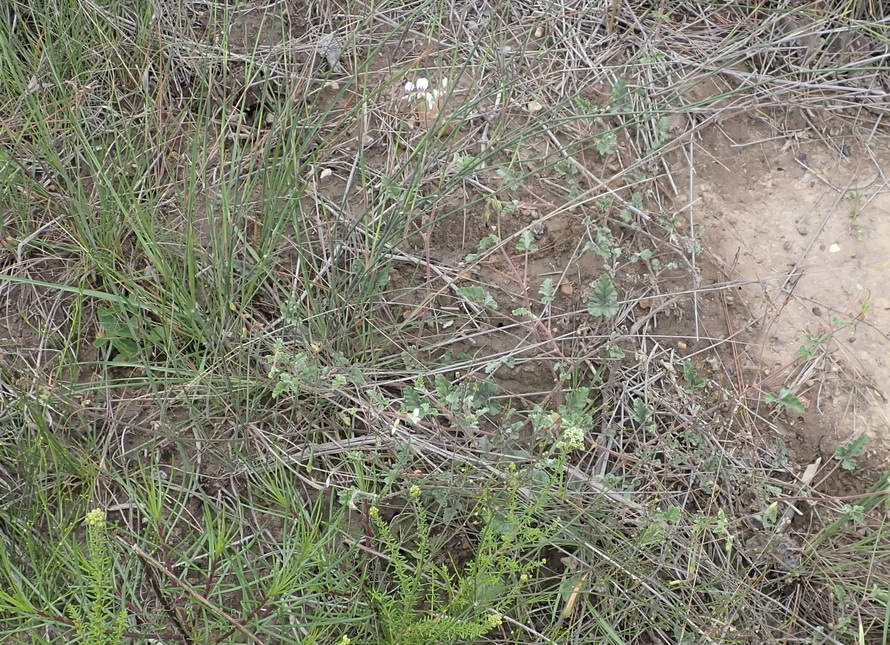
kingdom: Plantae
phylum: Tracheophyta
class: Magnoliopsida
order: Geraniales
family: Geraniaceae
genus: Pelargonium
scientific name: Pelargonium candicans
